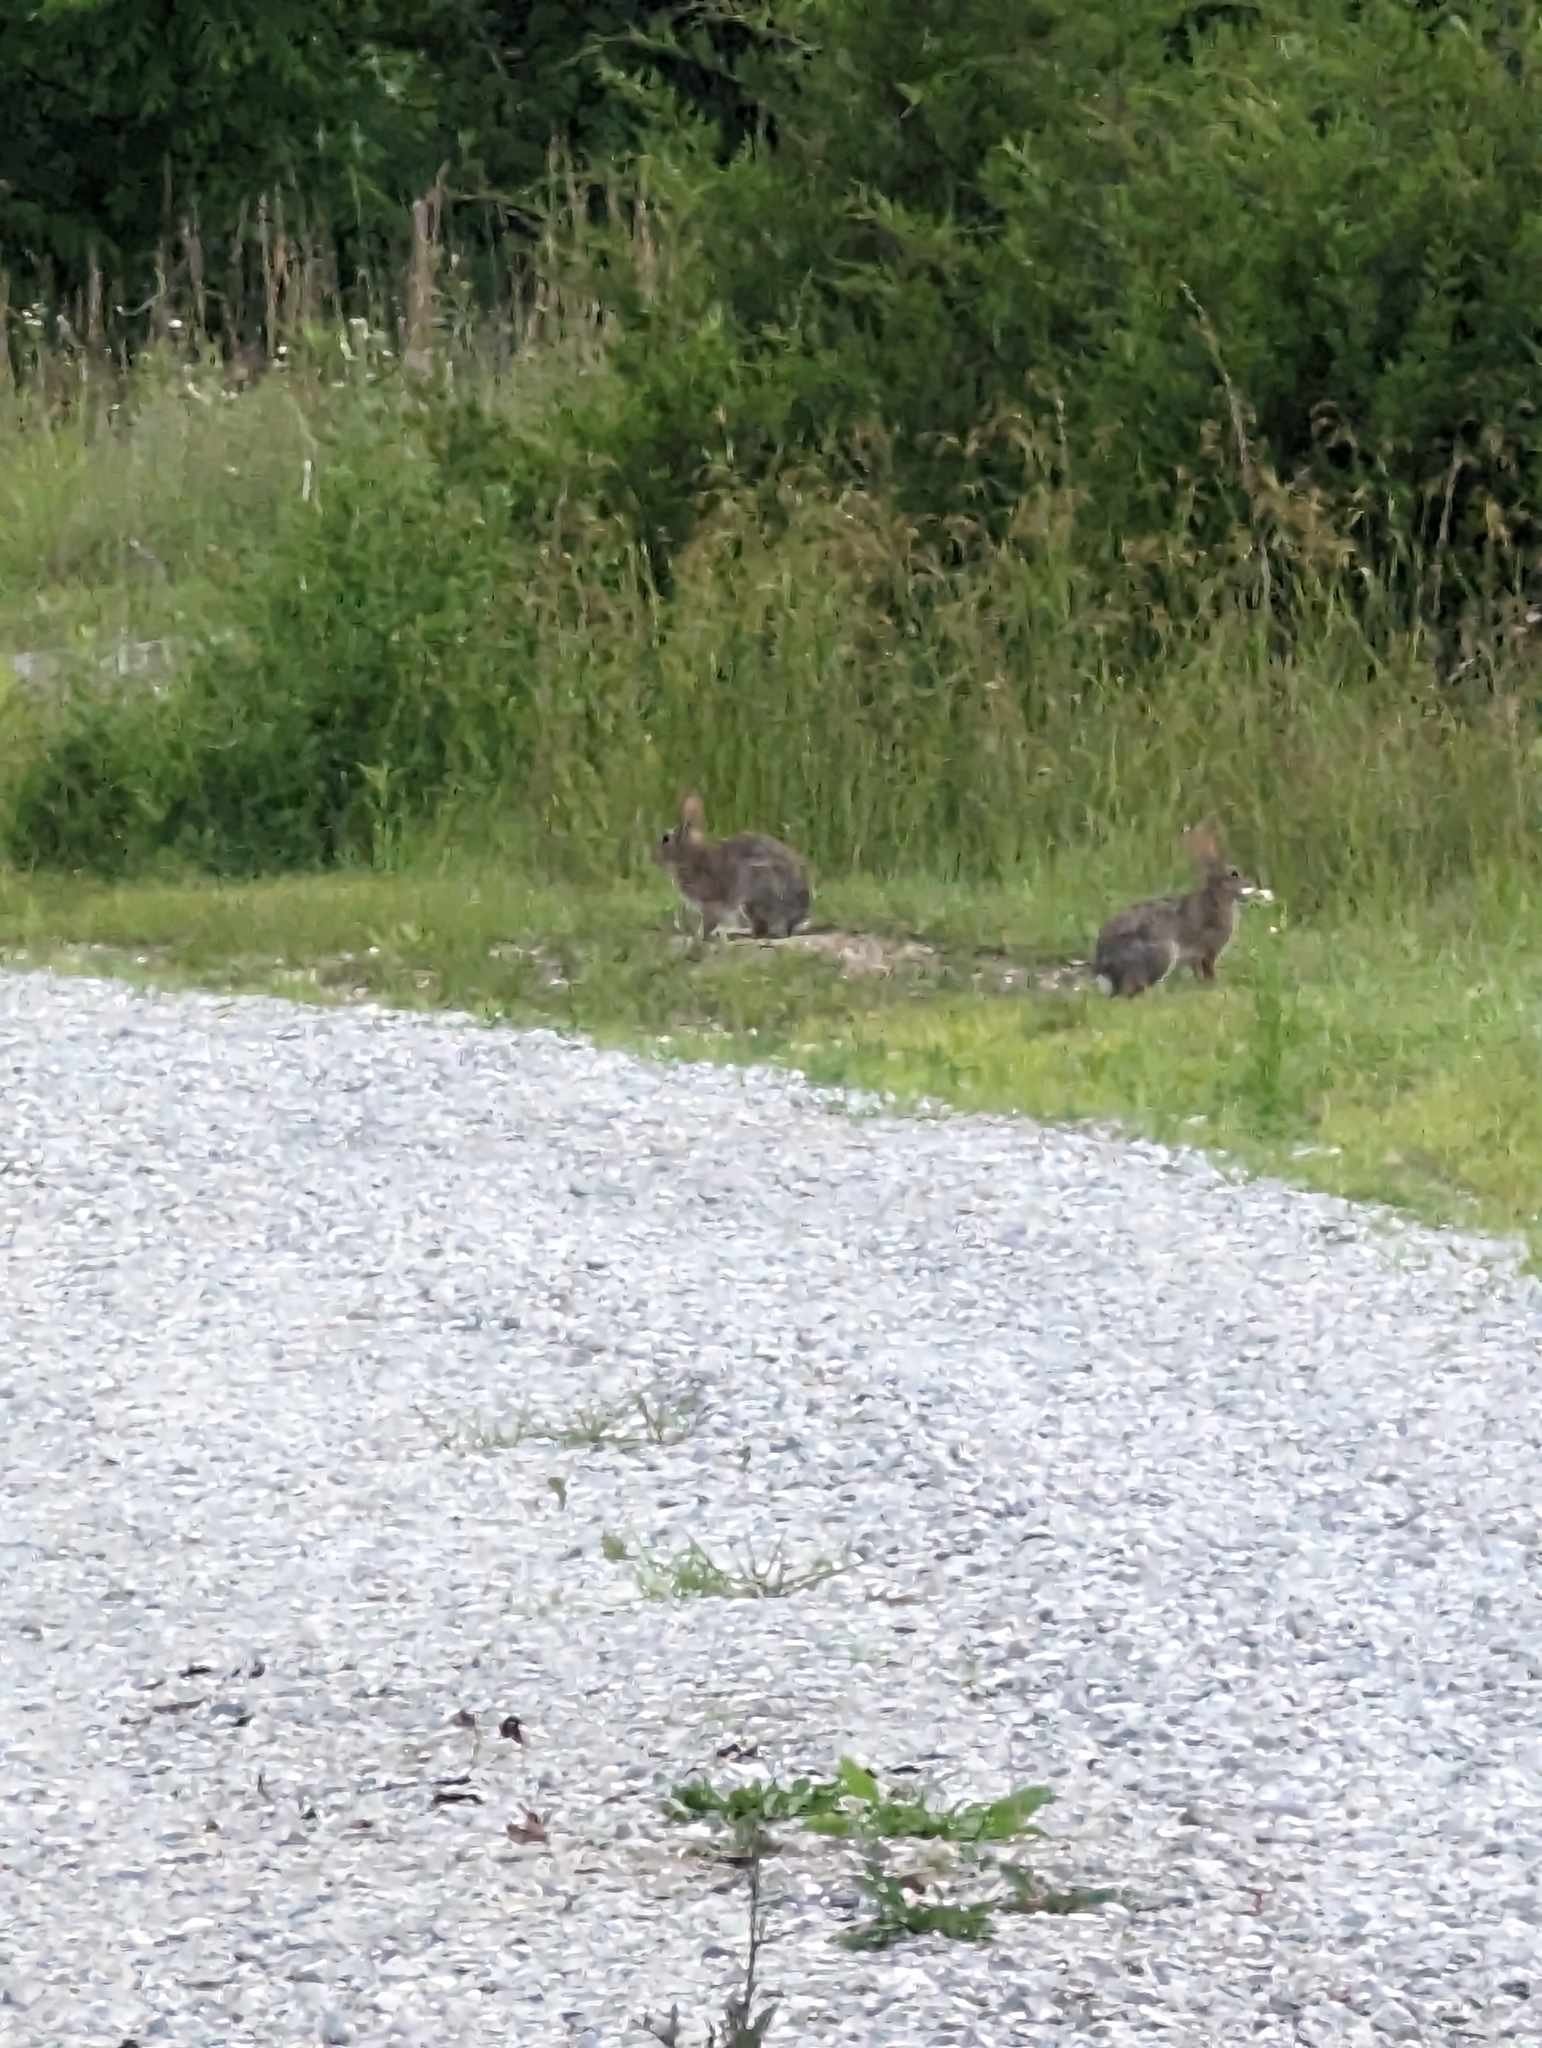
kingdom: Animalia
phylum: Chordata
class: Mammalia
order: Lagomorpha
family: Leporidae
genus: Sylvilagus
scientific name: Sylvilagus floridanus
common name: Eastern cottontail
